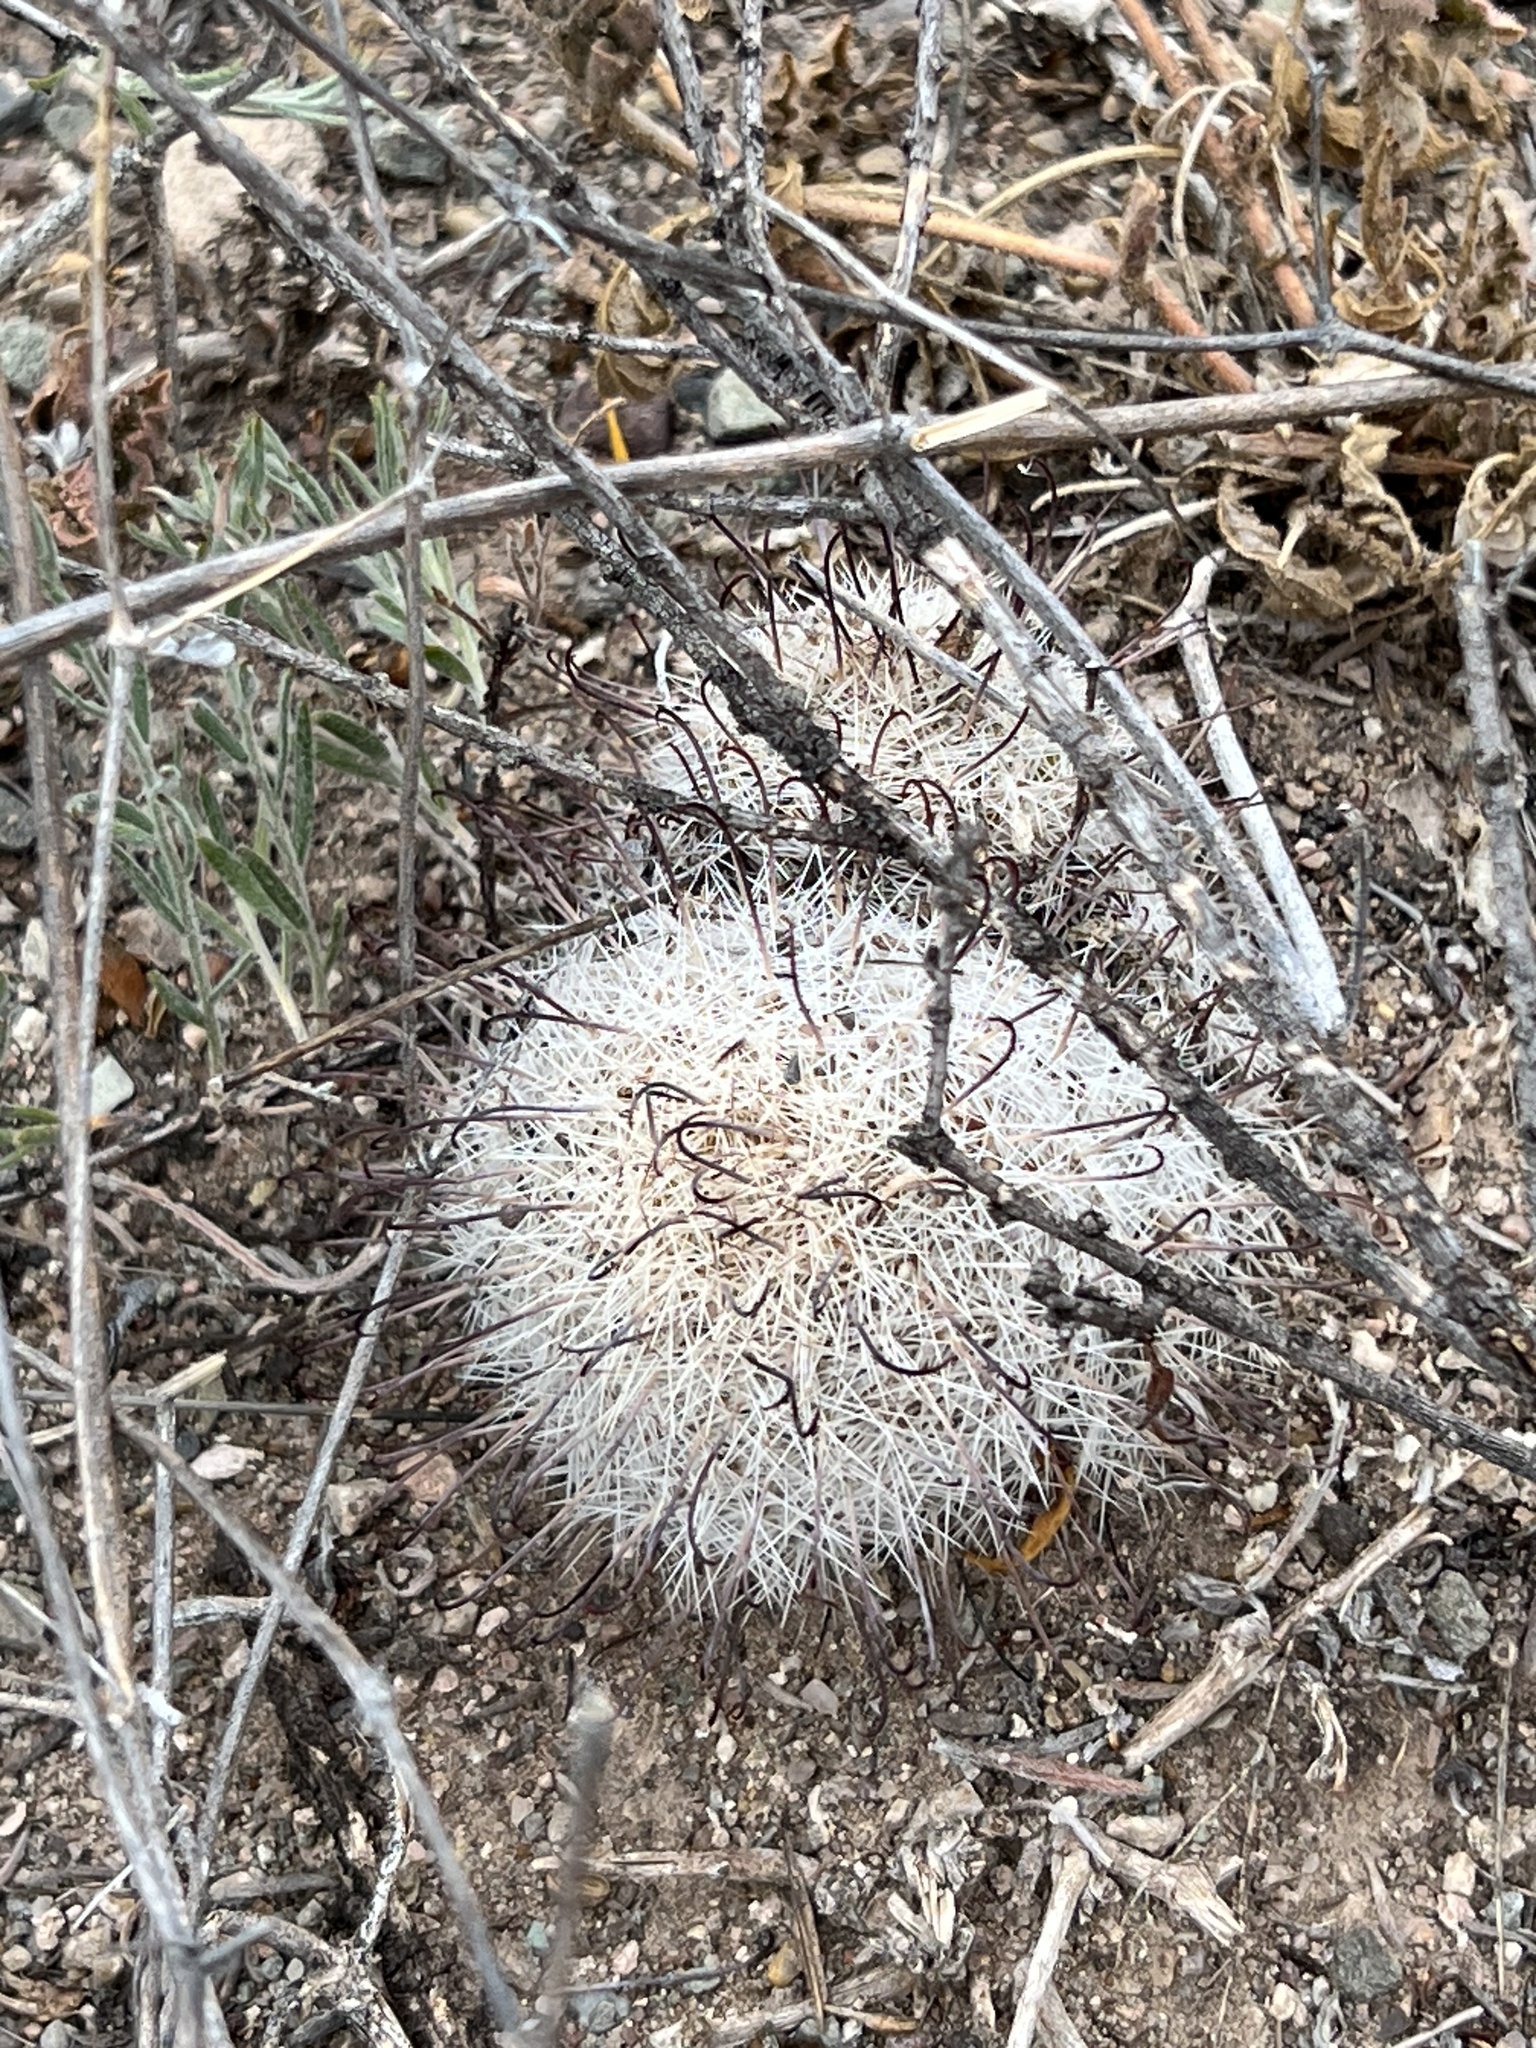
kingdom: Plantae
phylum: Tracheophyta
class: Magnoliopsida
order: Caryophyllales
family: Cactaceae
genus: Cochemiea
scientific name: Cochemiea grahamii
